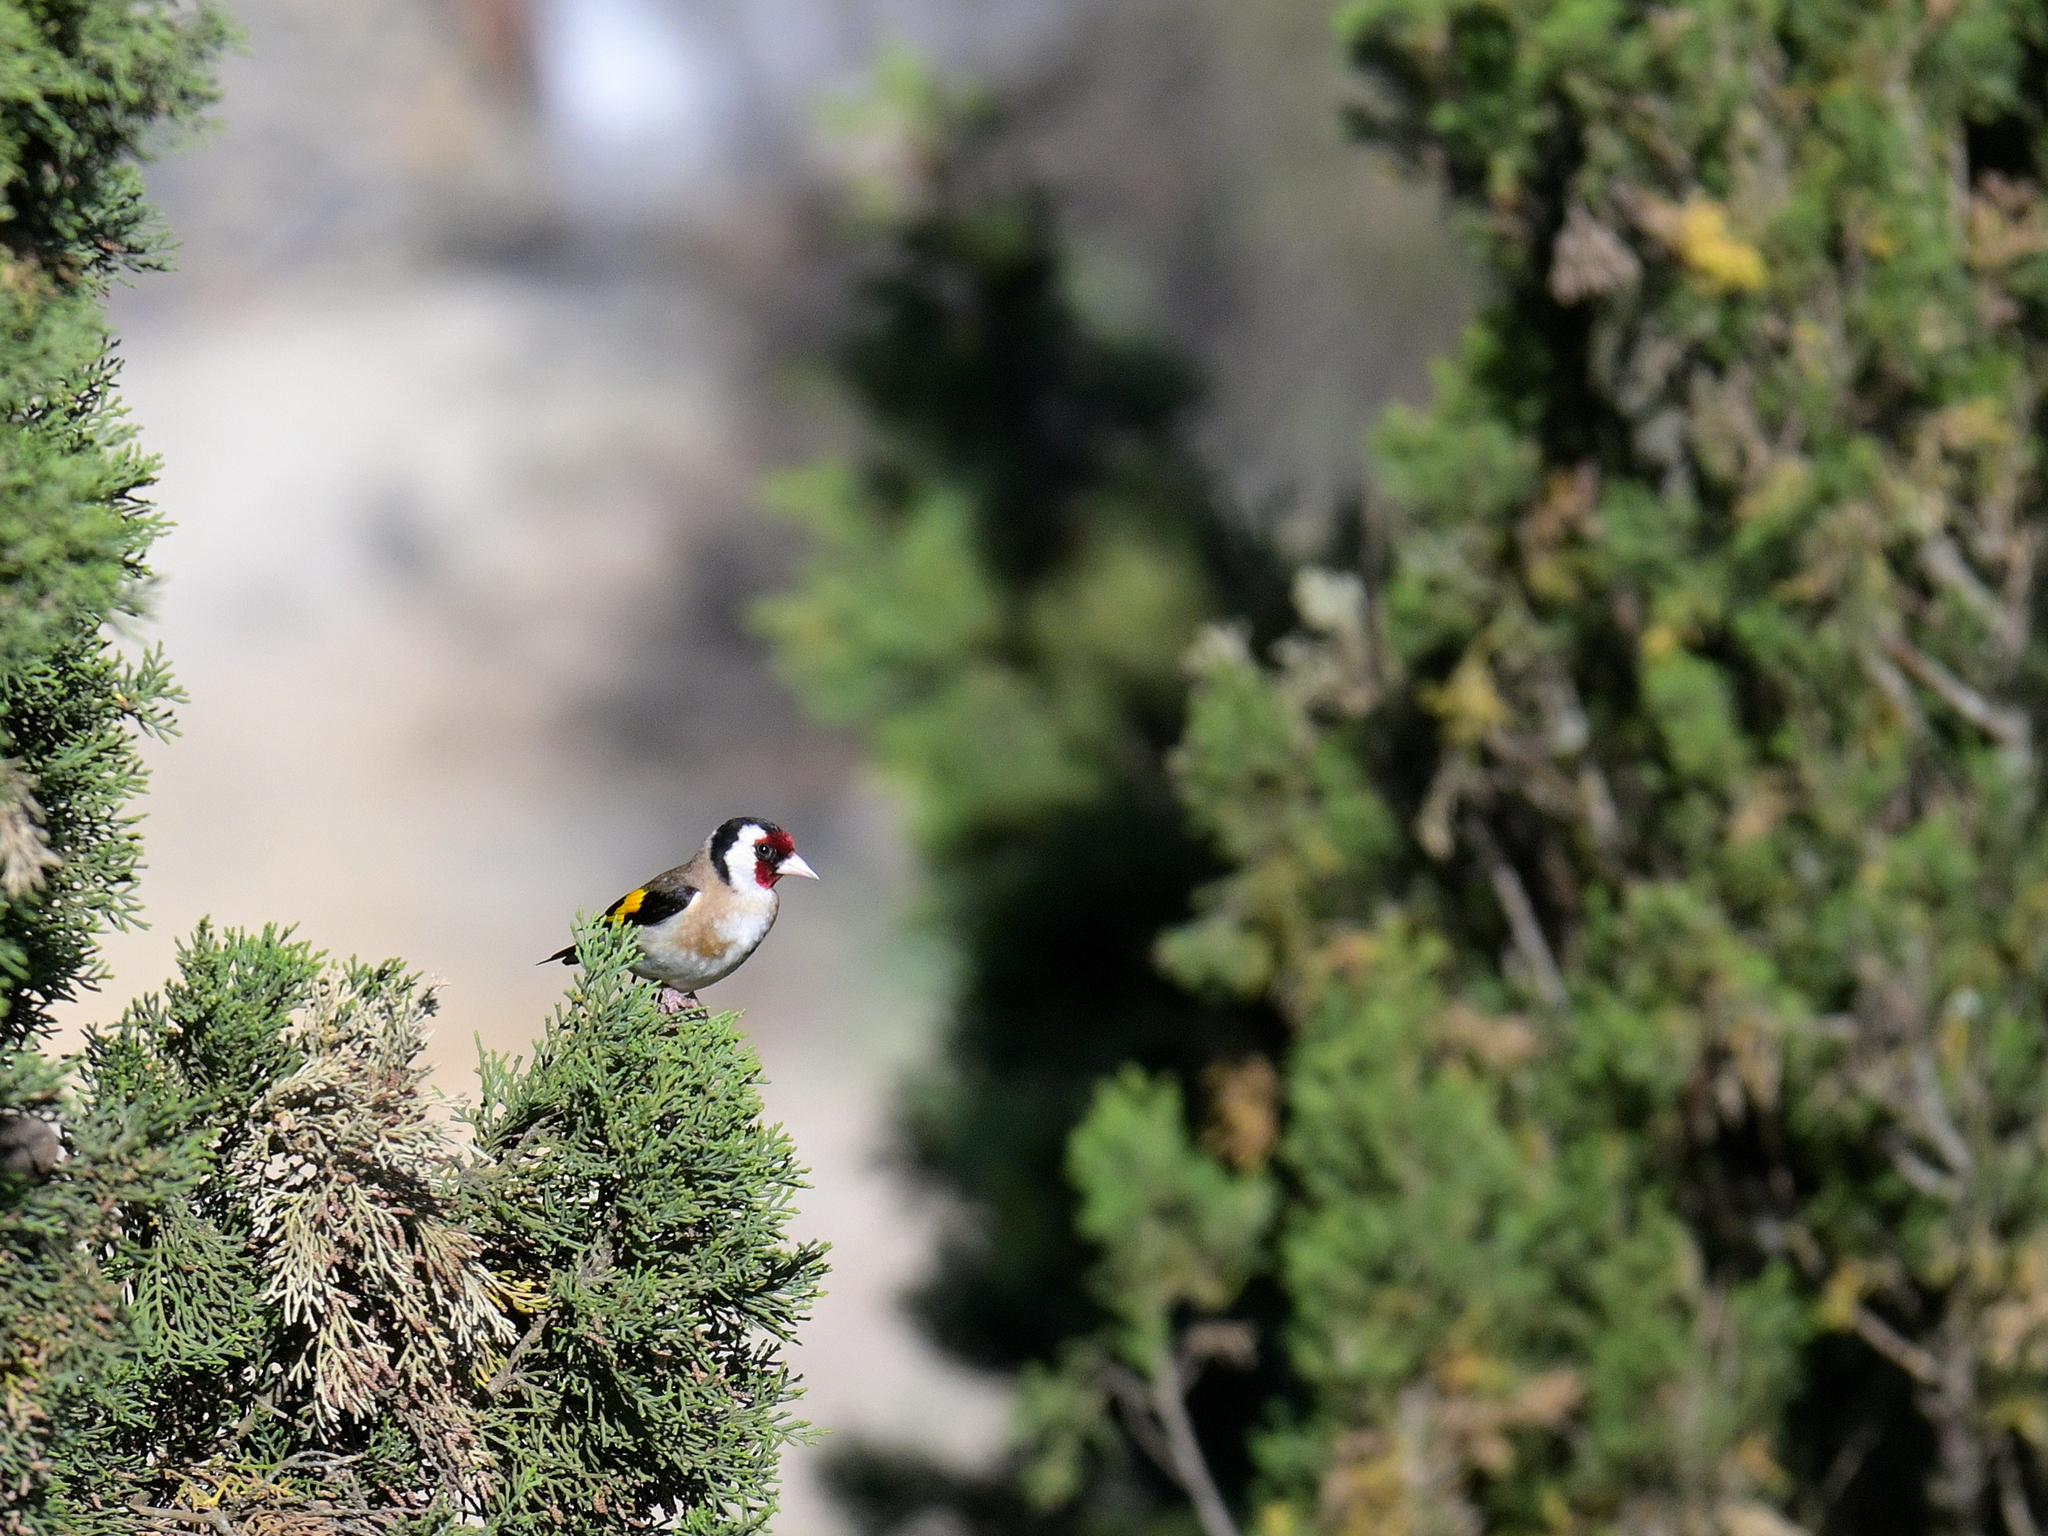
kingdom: Animalia
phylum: Chordata
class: Aves
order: Passeriformes
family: Fringillidae
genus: Carduelis
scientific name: Carduelis carduelis
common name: European goldfinch
